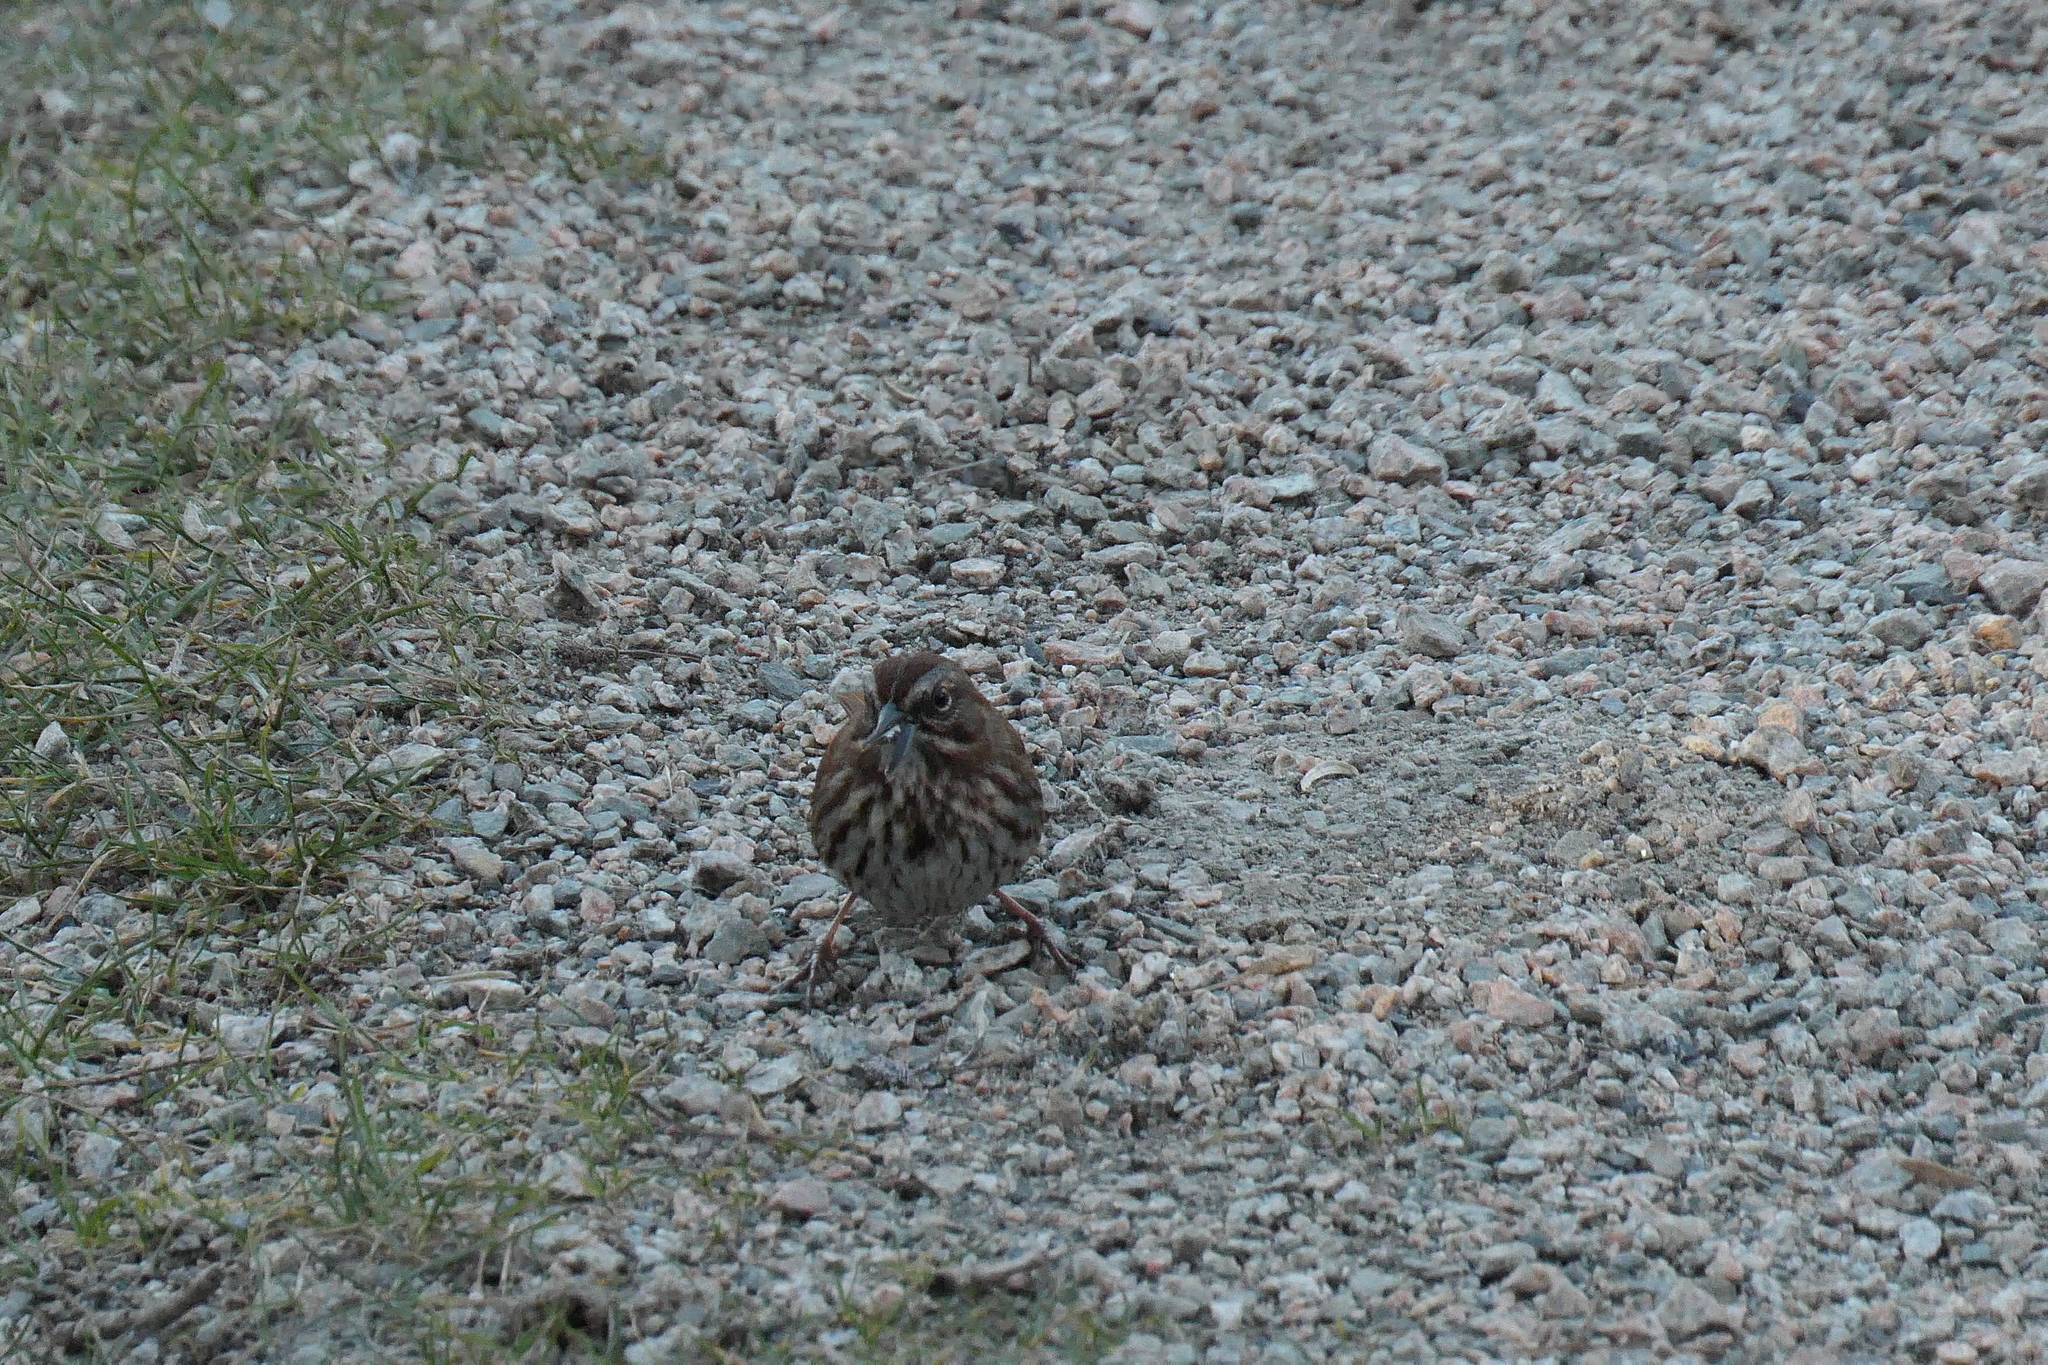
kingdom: Animalia
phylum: Chordata
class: Aves
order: Passeriformes
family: Passerellidae
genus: Melospiza
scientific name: Melospiza melodia
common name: Song sparrow
